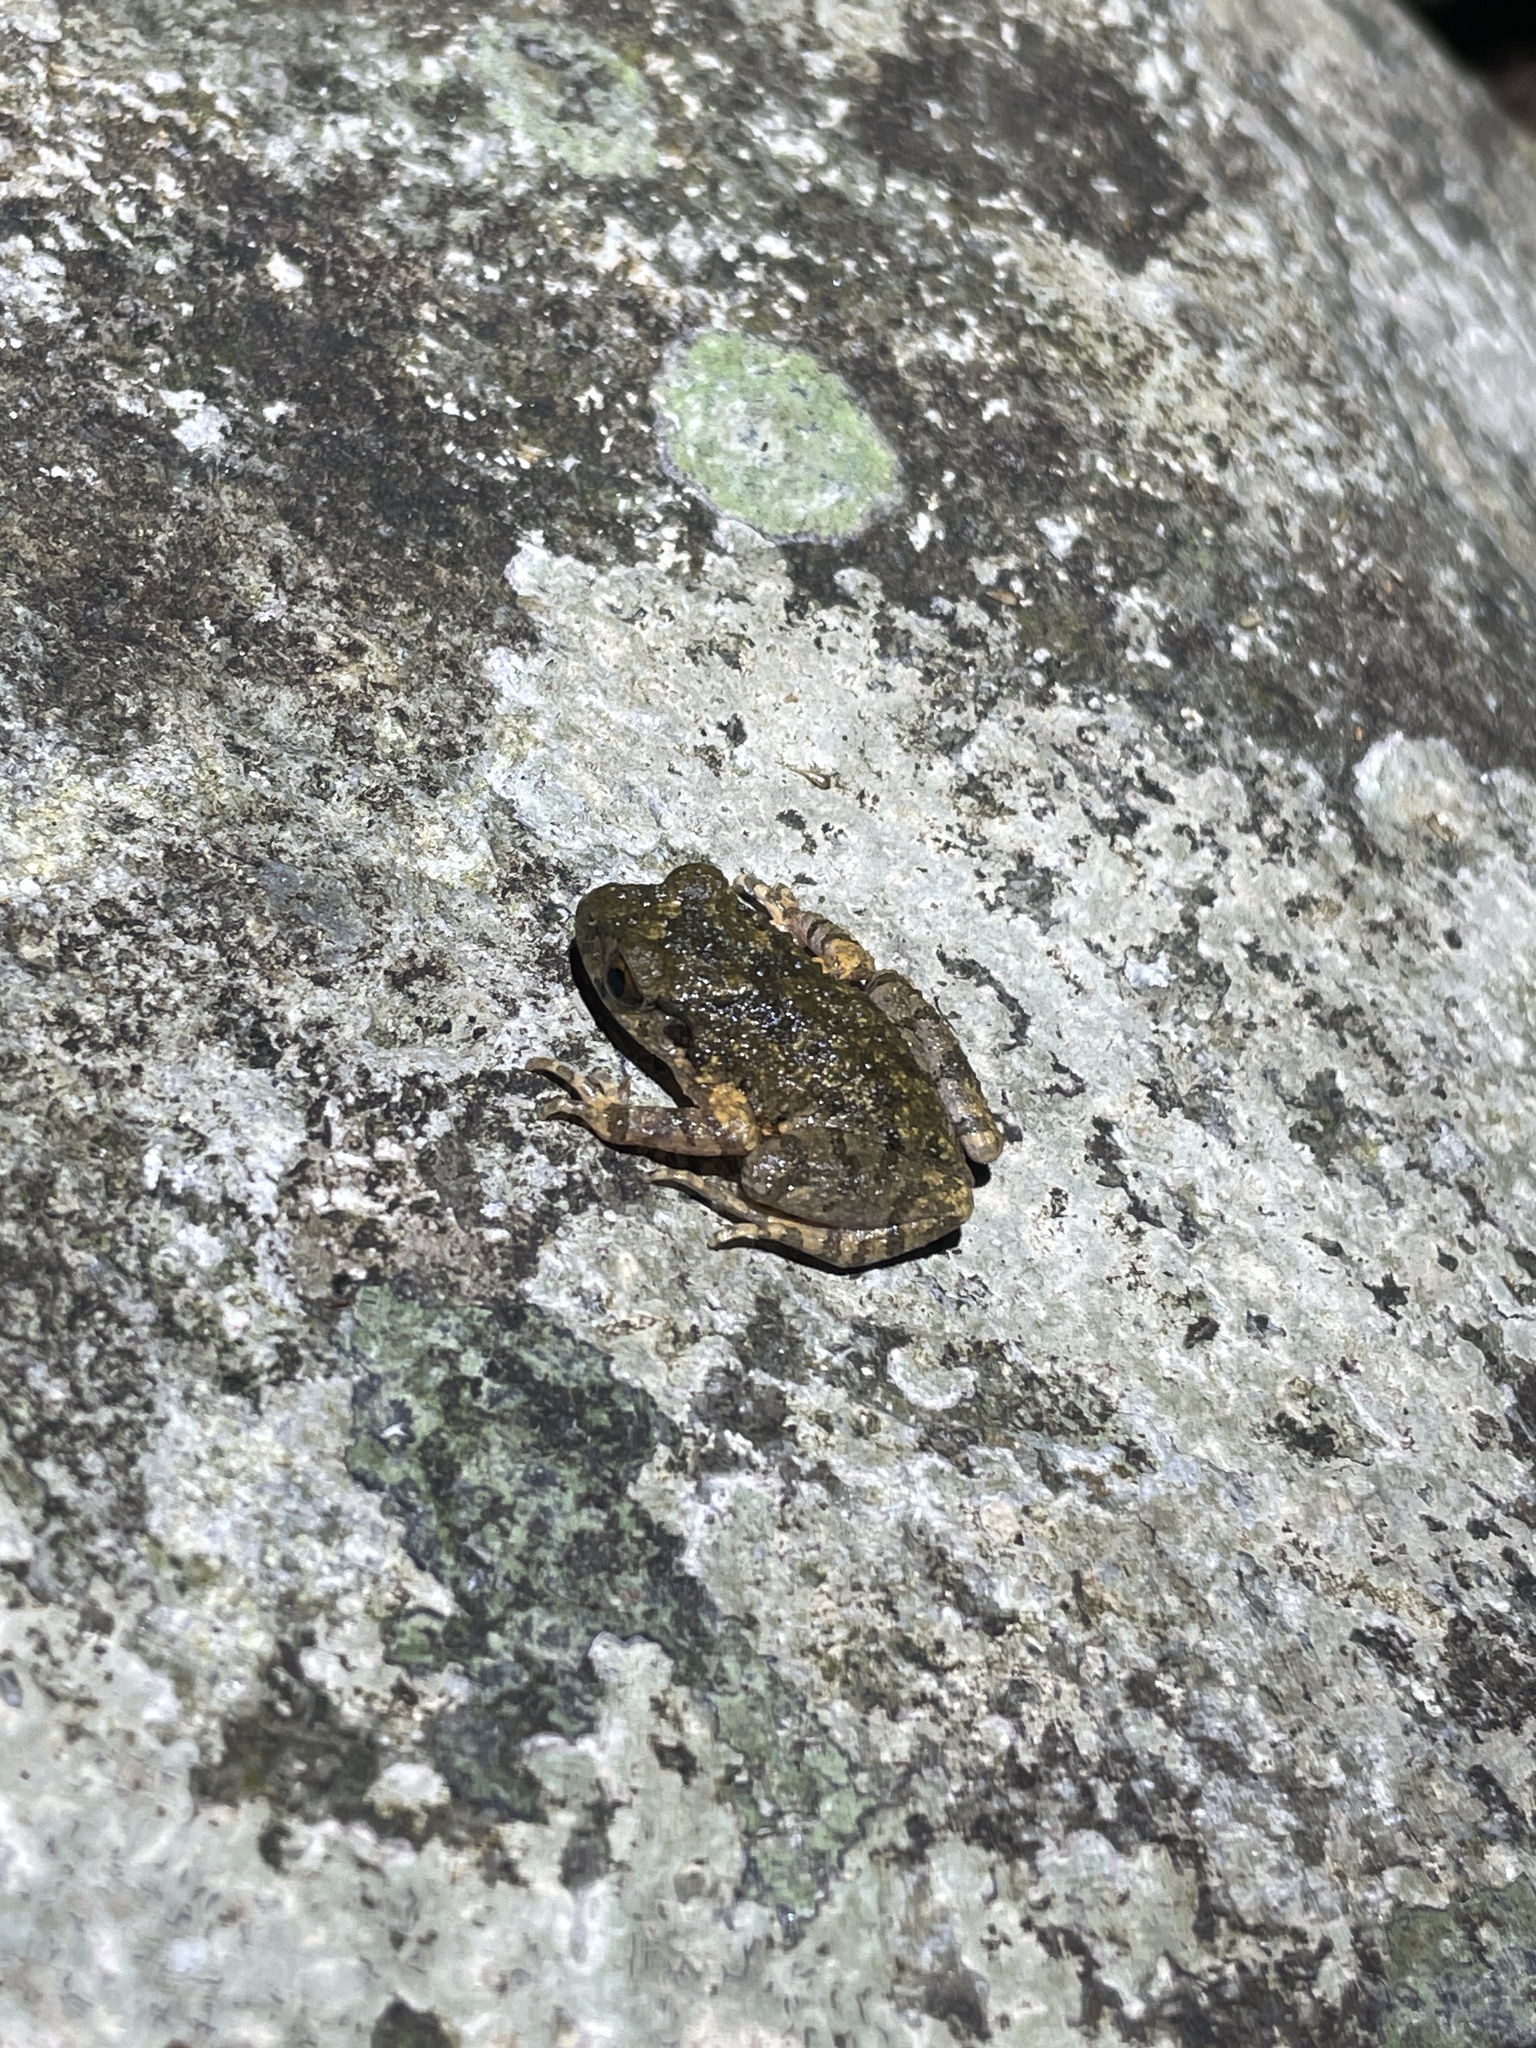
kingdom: Animalia
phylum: Chordata
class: Amphibia
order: Anura
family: Megophryidae
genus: Leptobrachella
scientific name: Leptobrachella laui
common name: Lau's leaf little toad
